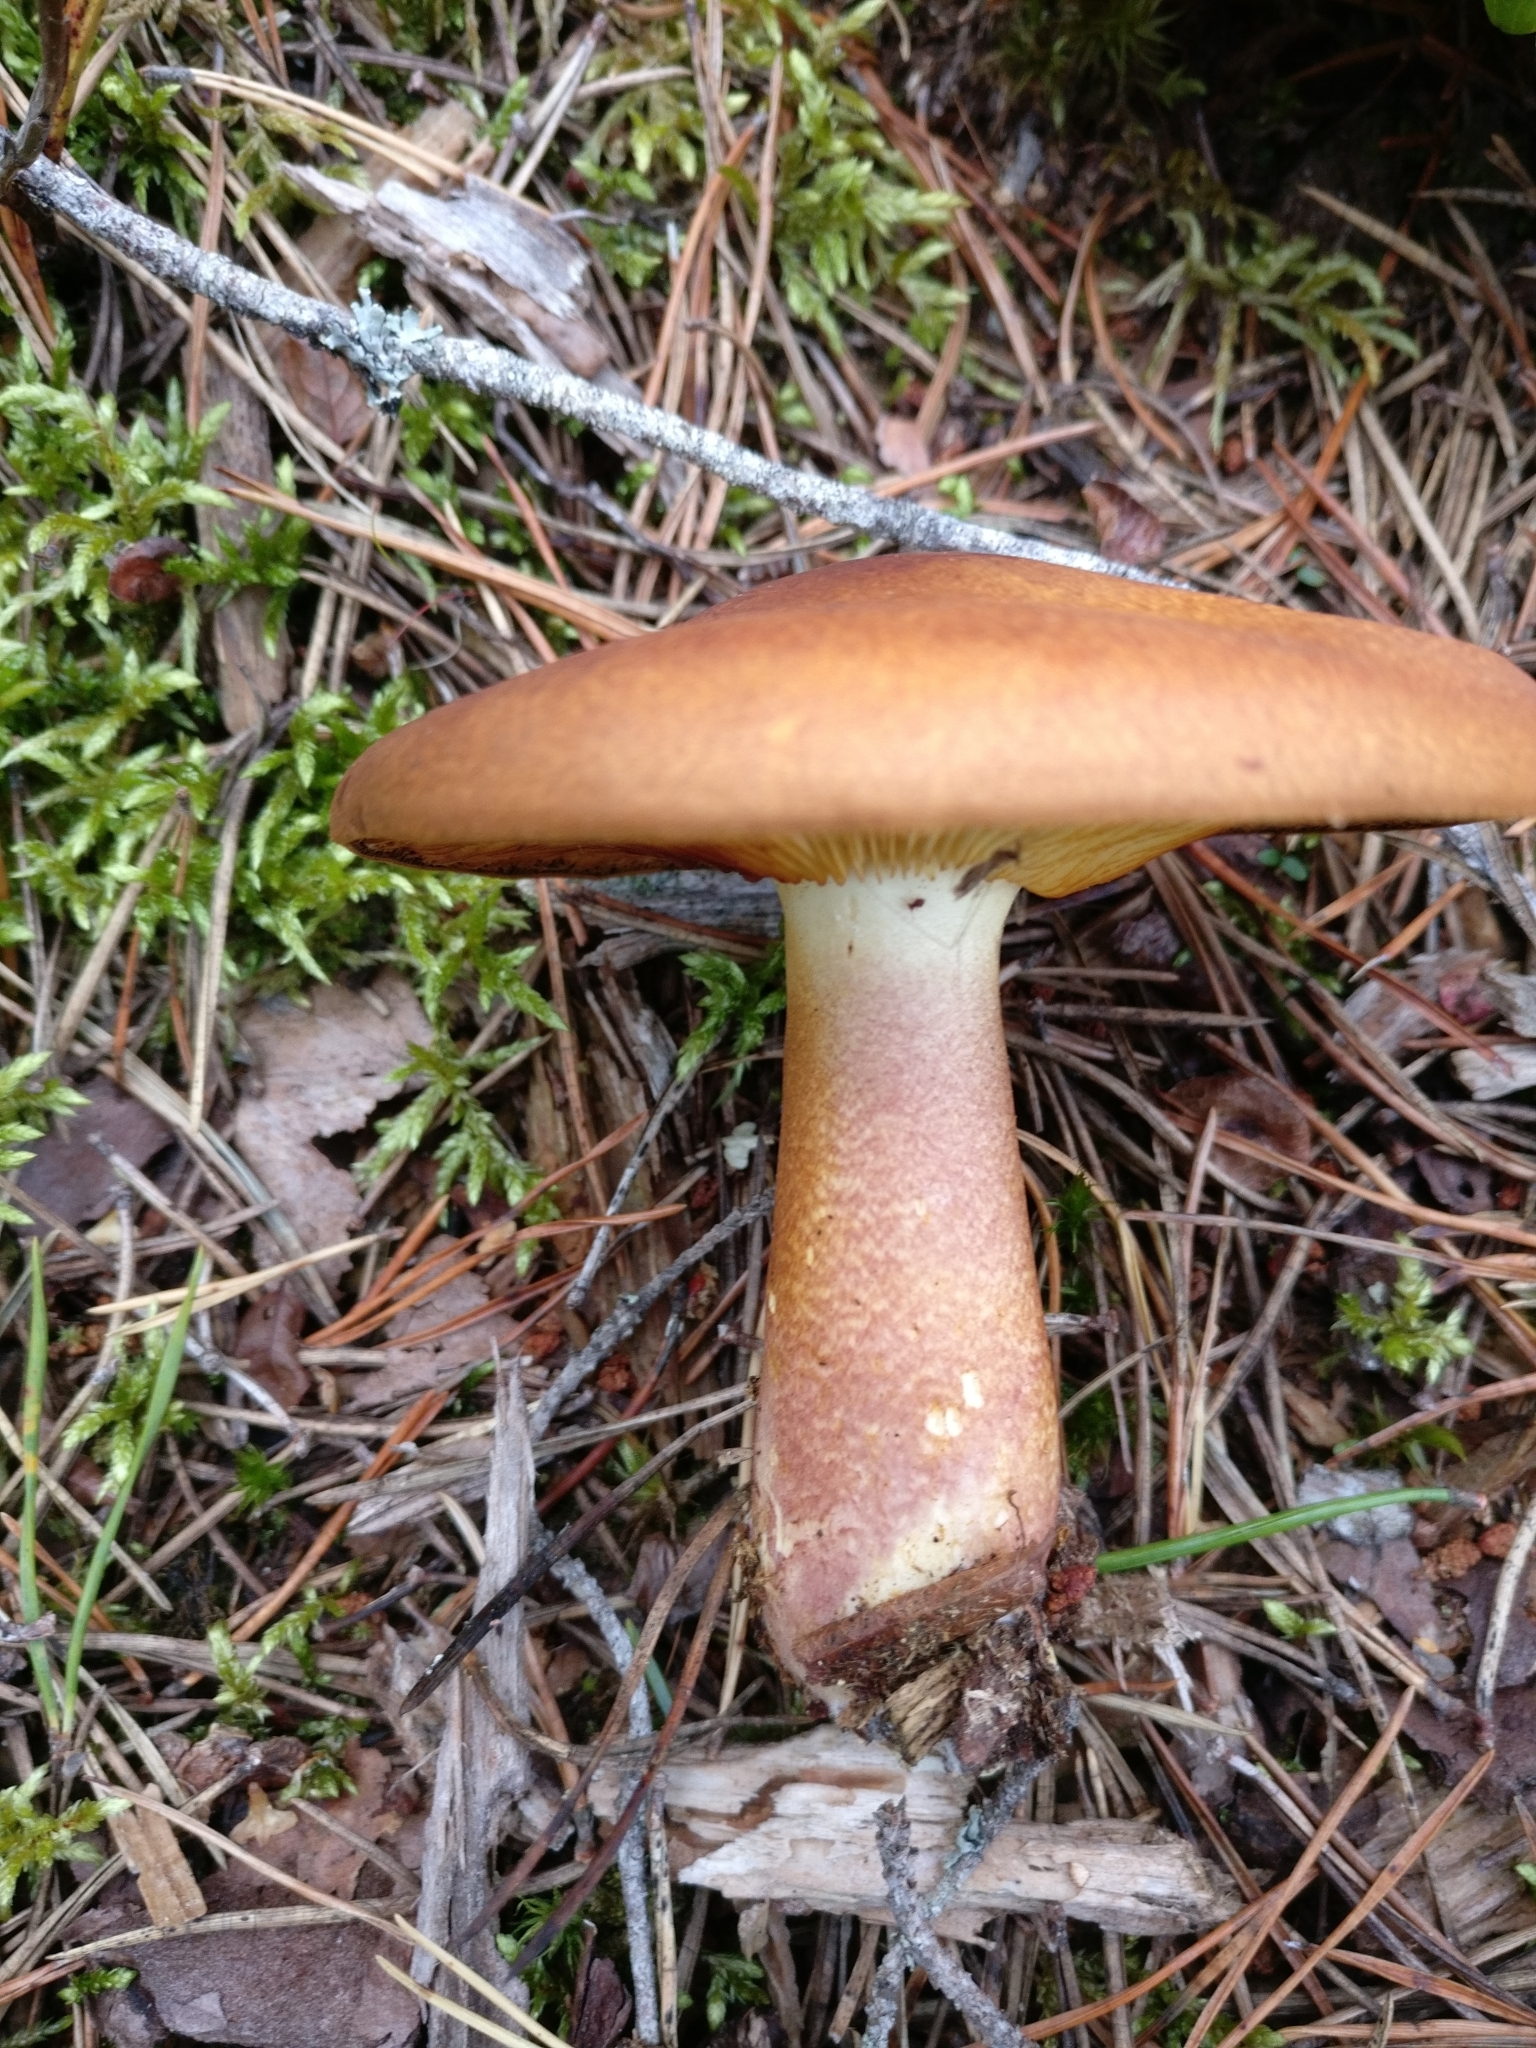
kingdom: Fungi
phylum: Basidiomycota
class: Agaricomycetes
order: Agaricales
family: Tricholomataceae
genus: Tricholomopsis
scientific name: Tricholomopsis rutilans
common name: Plums and custard
